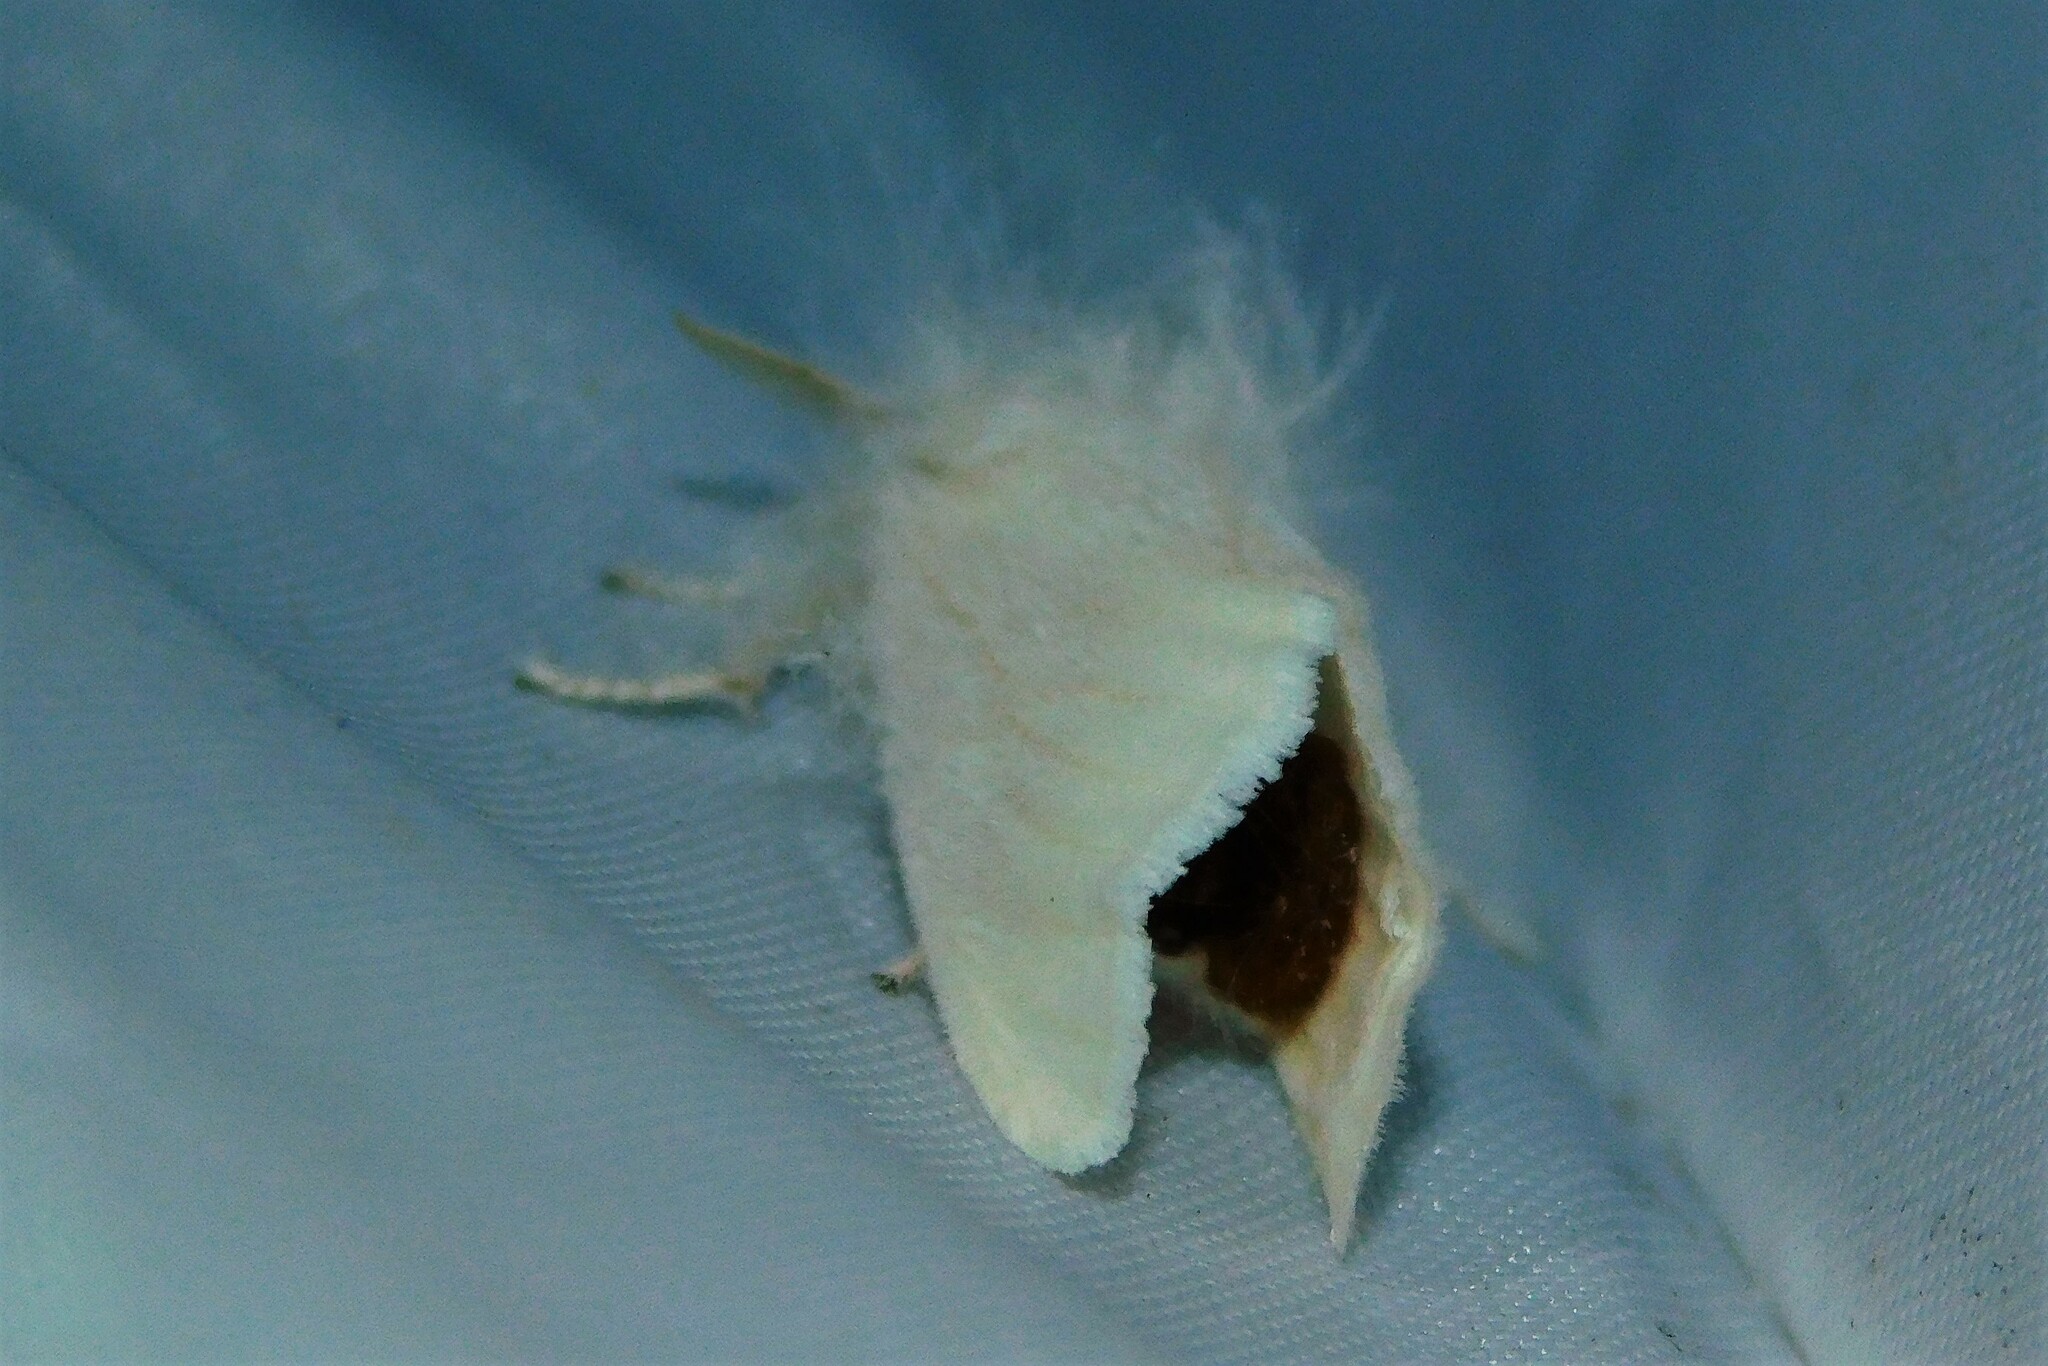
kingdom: Animalia
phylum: Arthropoda
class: Insecta
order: Lepidoptera
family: Erebidae
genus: Euproctis
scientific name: Euproctis chrysorrhoea
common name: Brown-tail
